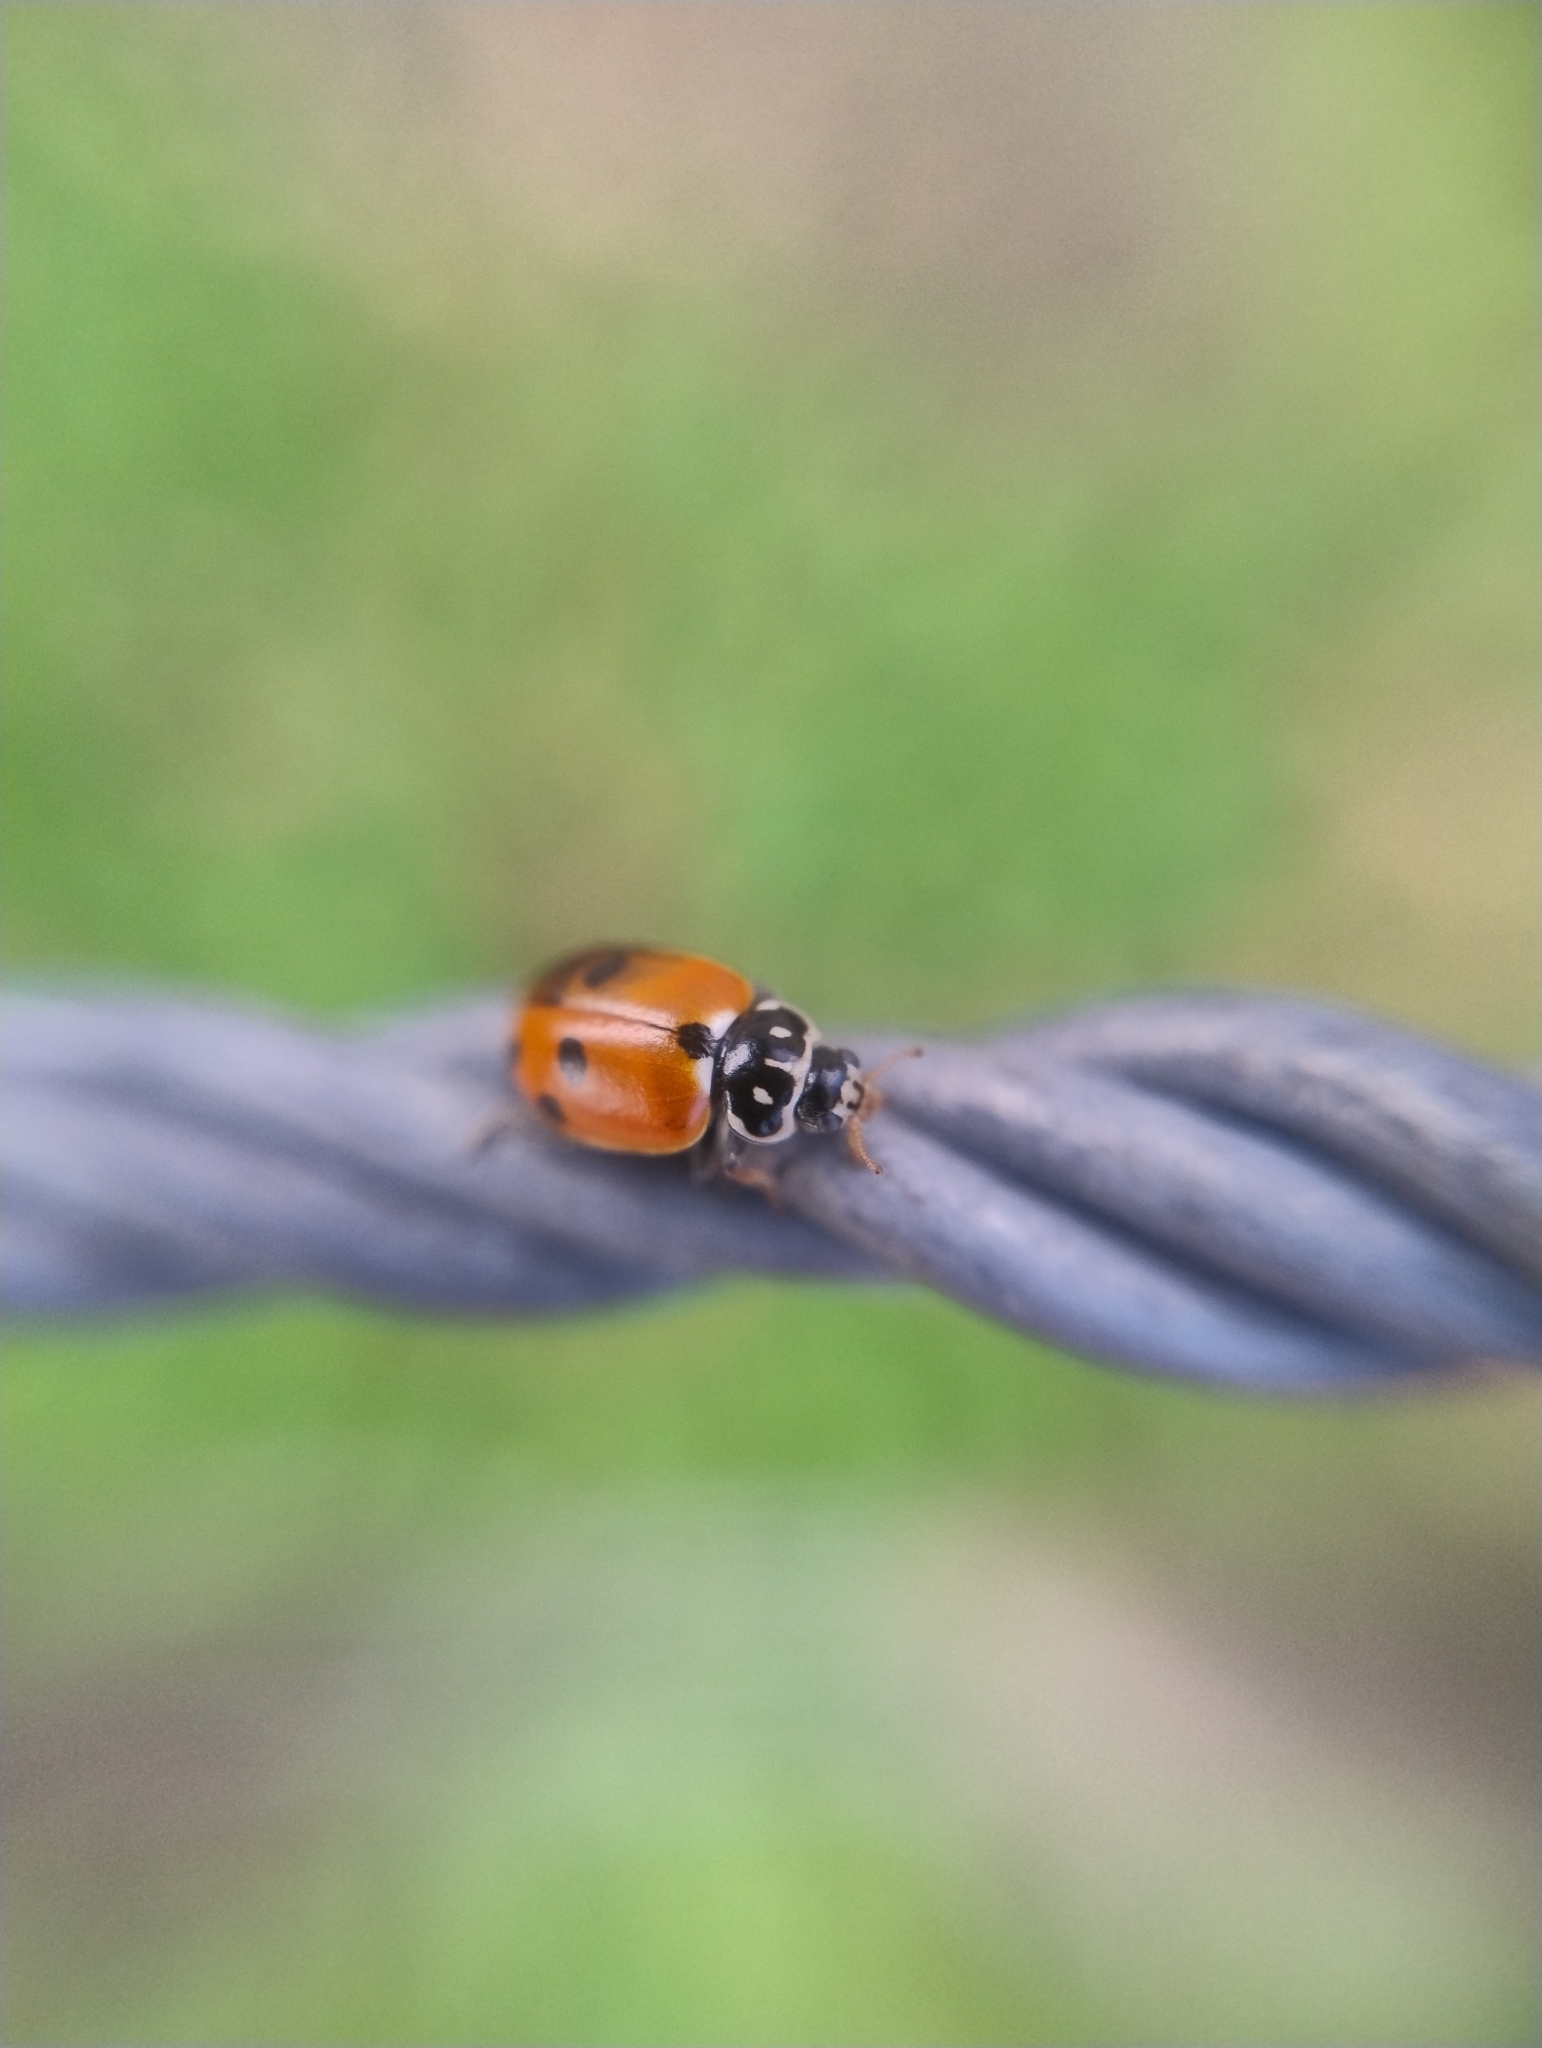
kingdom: Animalia
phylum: Arthropoda
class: Insecta
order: Coleoptera
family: Coccinellidae
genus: Hippodamia
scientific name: Hippodamia variegata
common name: Ladybird beetle
